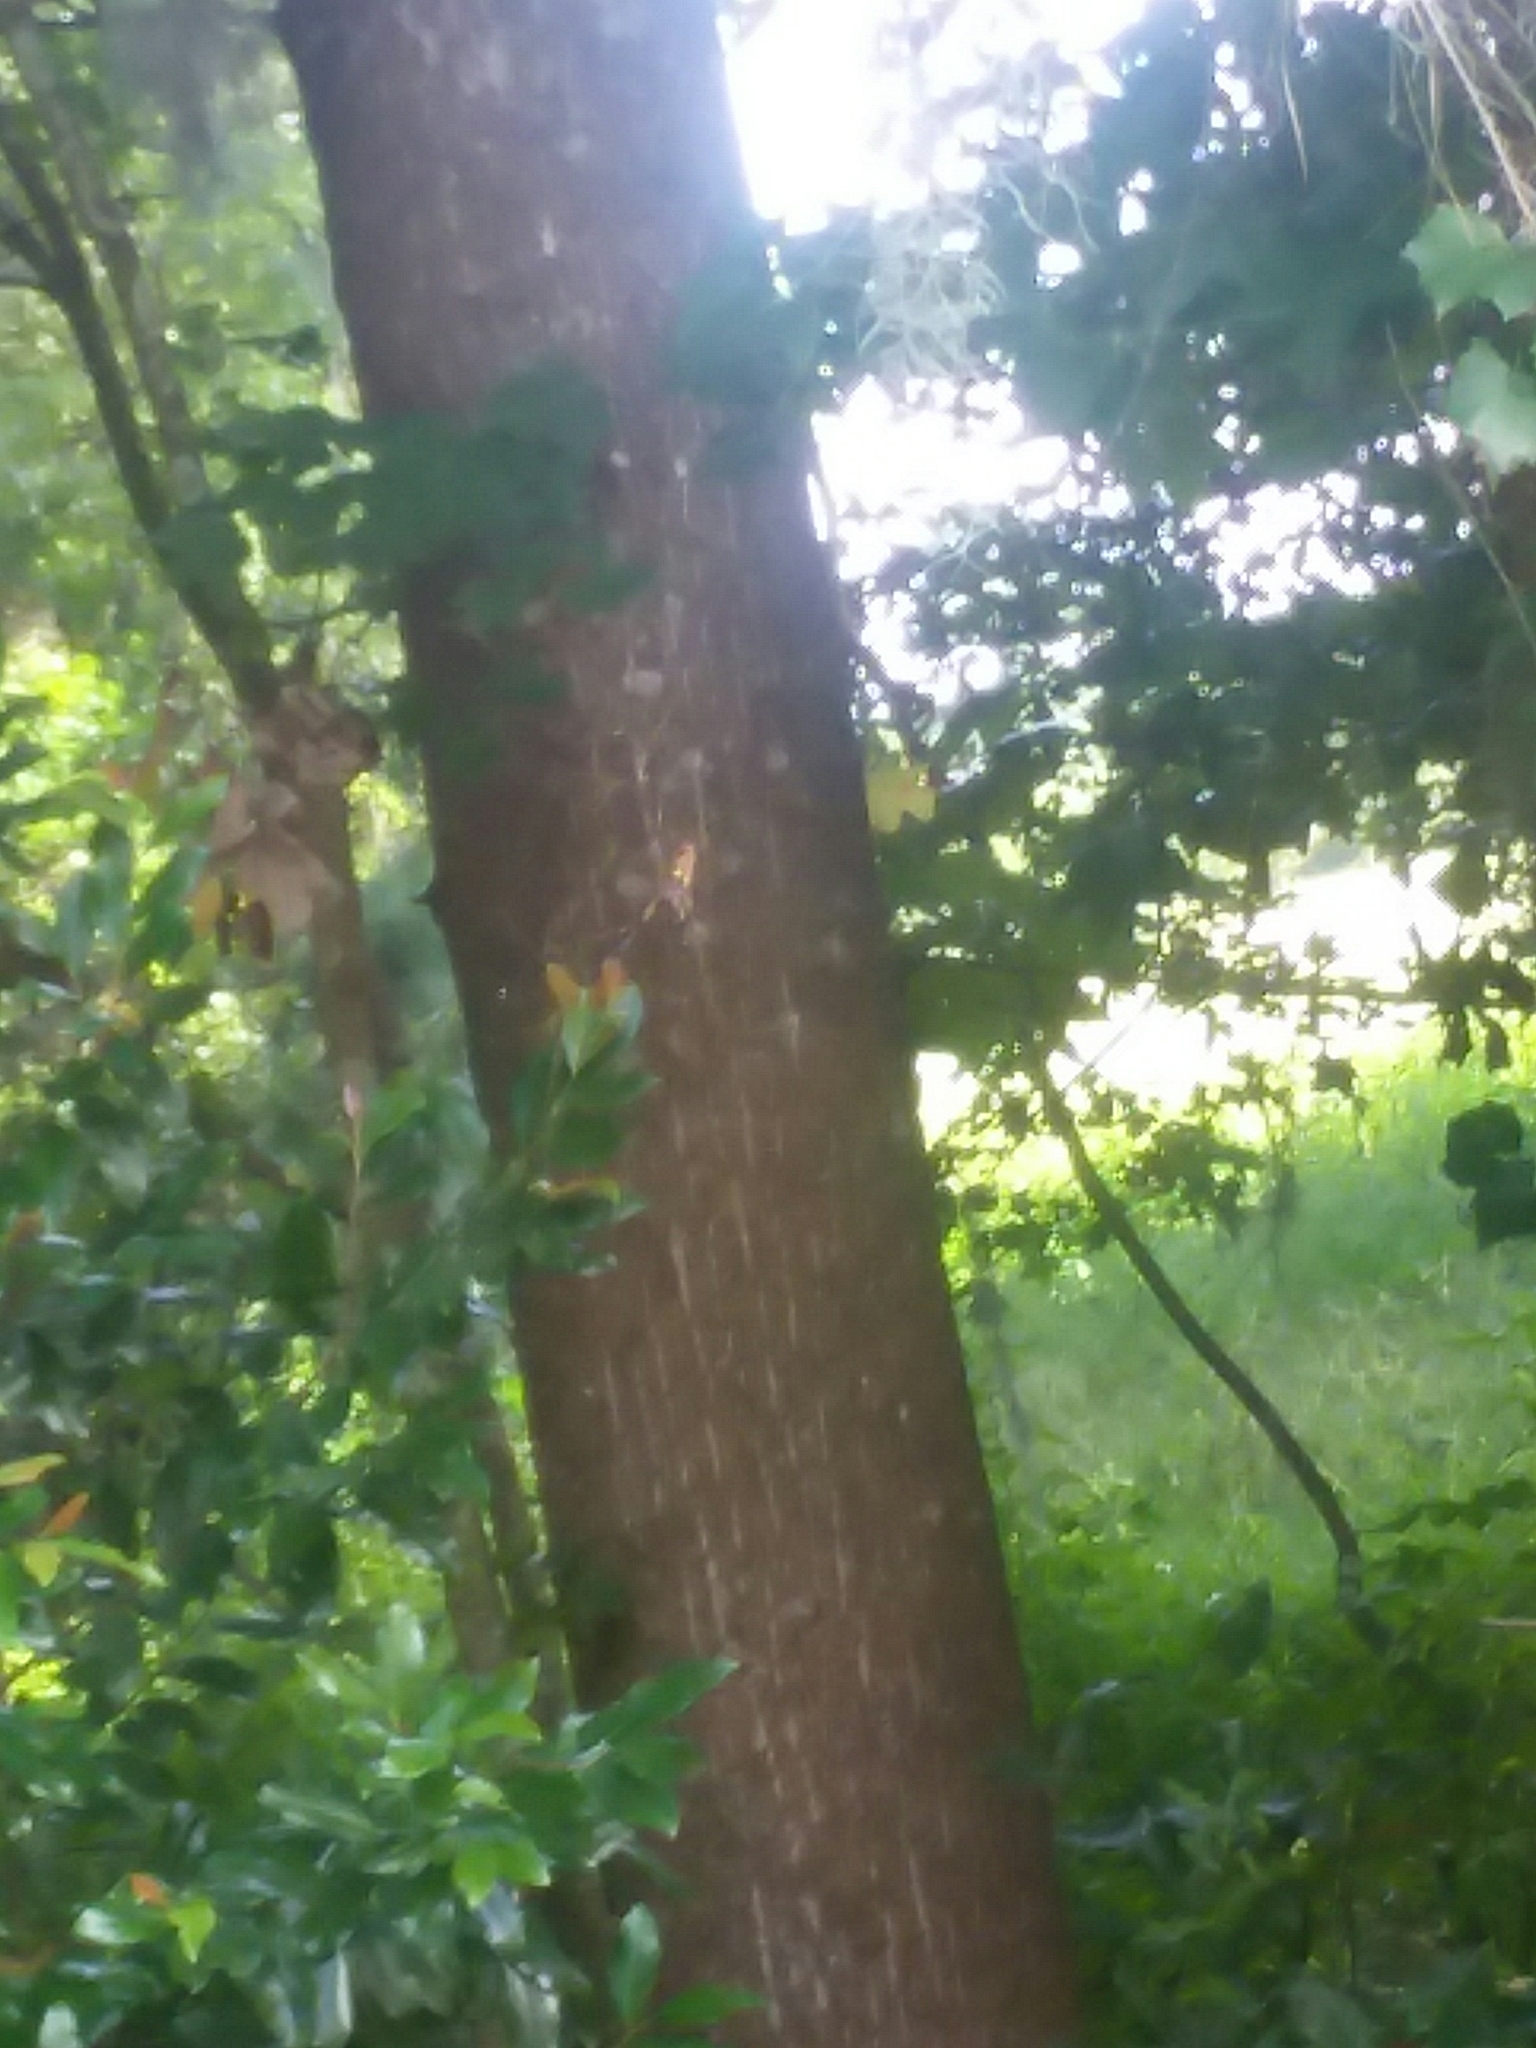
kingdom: Animalia
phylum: Arthropoda
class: Arachnida
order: Araneae
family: Araneidae
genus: Trichonephila
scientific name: Trichonephila clavipes
